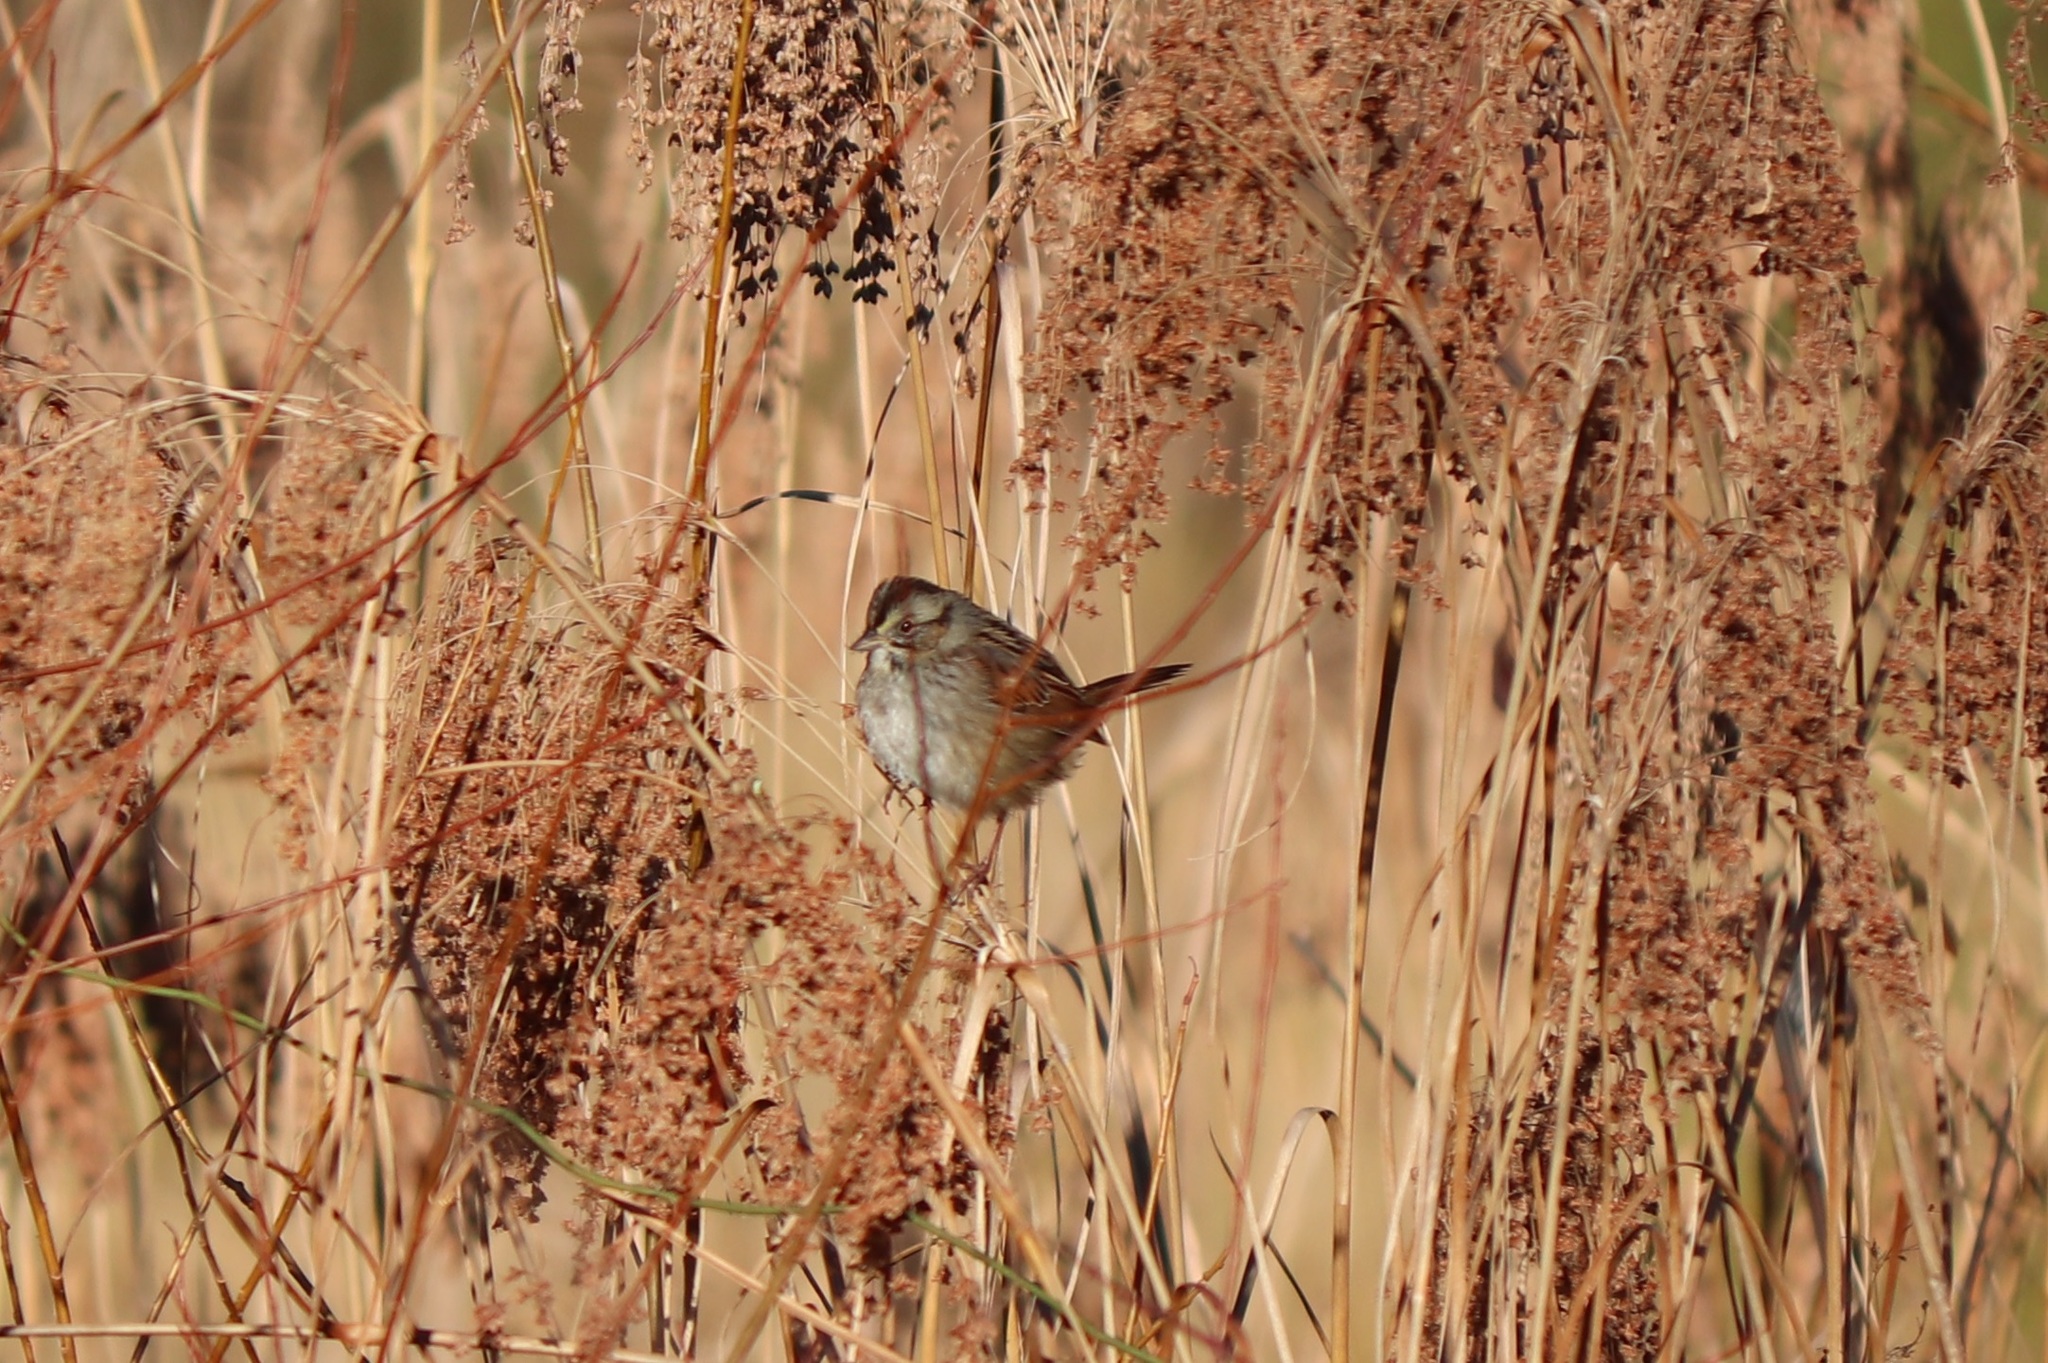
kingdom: Animalia
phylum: Chordata
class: Aves
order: Passeriformes
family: Passerellidae
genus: Melospiza
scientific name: Melospiza georgiana
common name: Swamp sparrow
